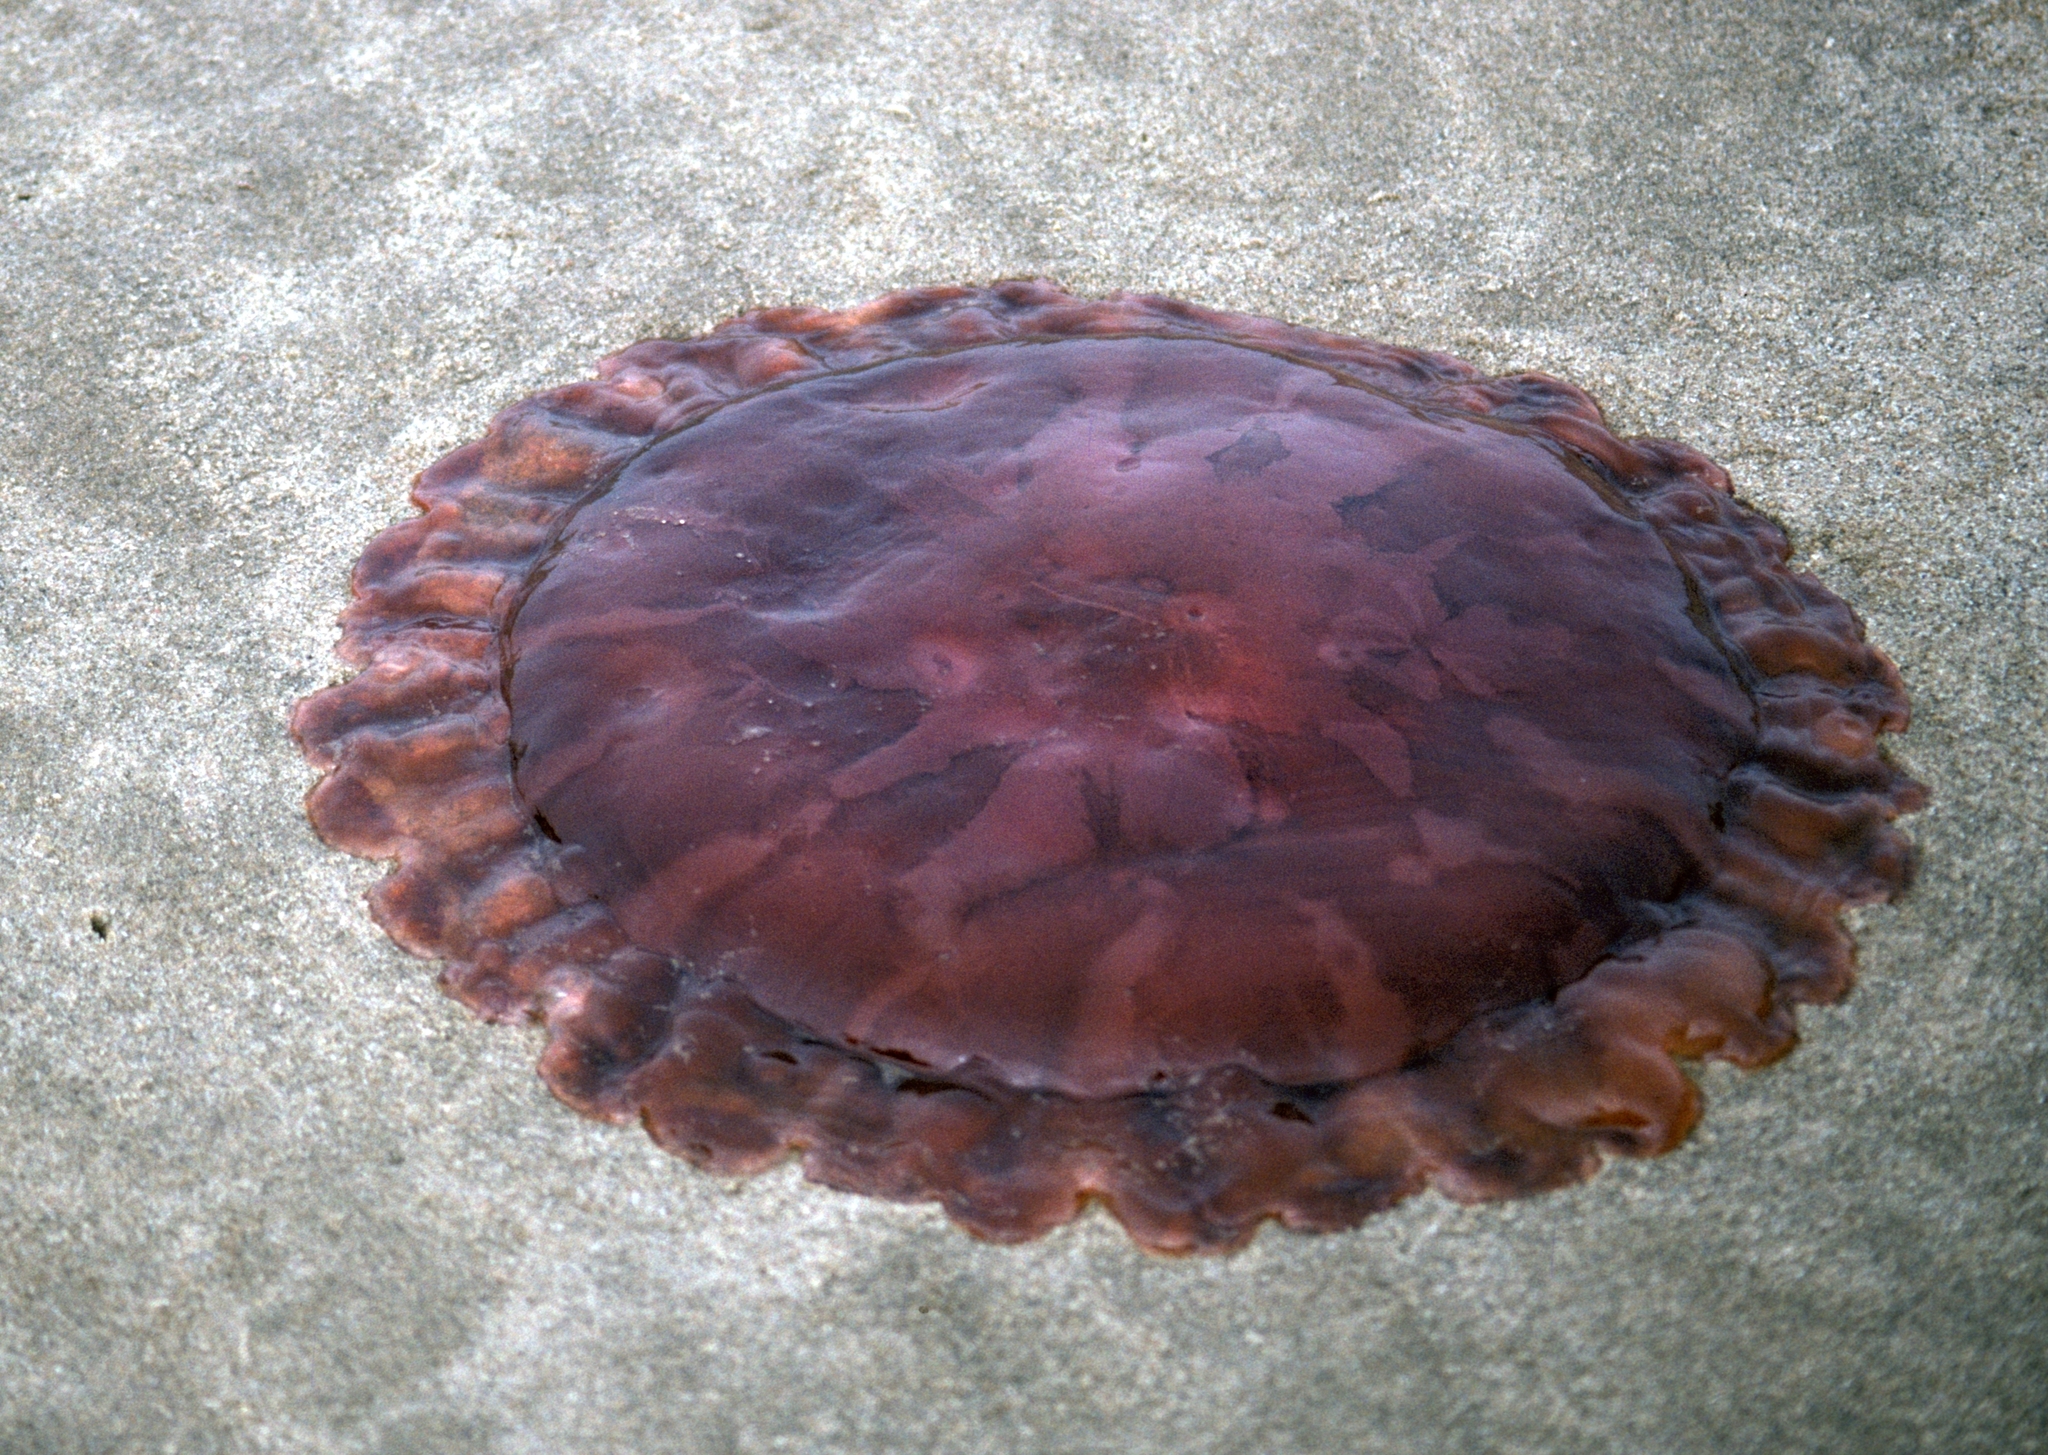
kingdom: Animalia
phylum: Cnidaria
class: Scyphozoa
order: Semaeostomeae
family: Pelagiidae
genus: Chrysaora
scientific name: Chrysaora fulgida
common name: Sea nettle
